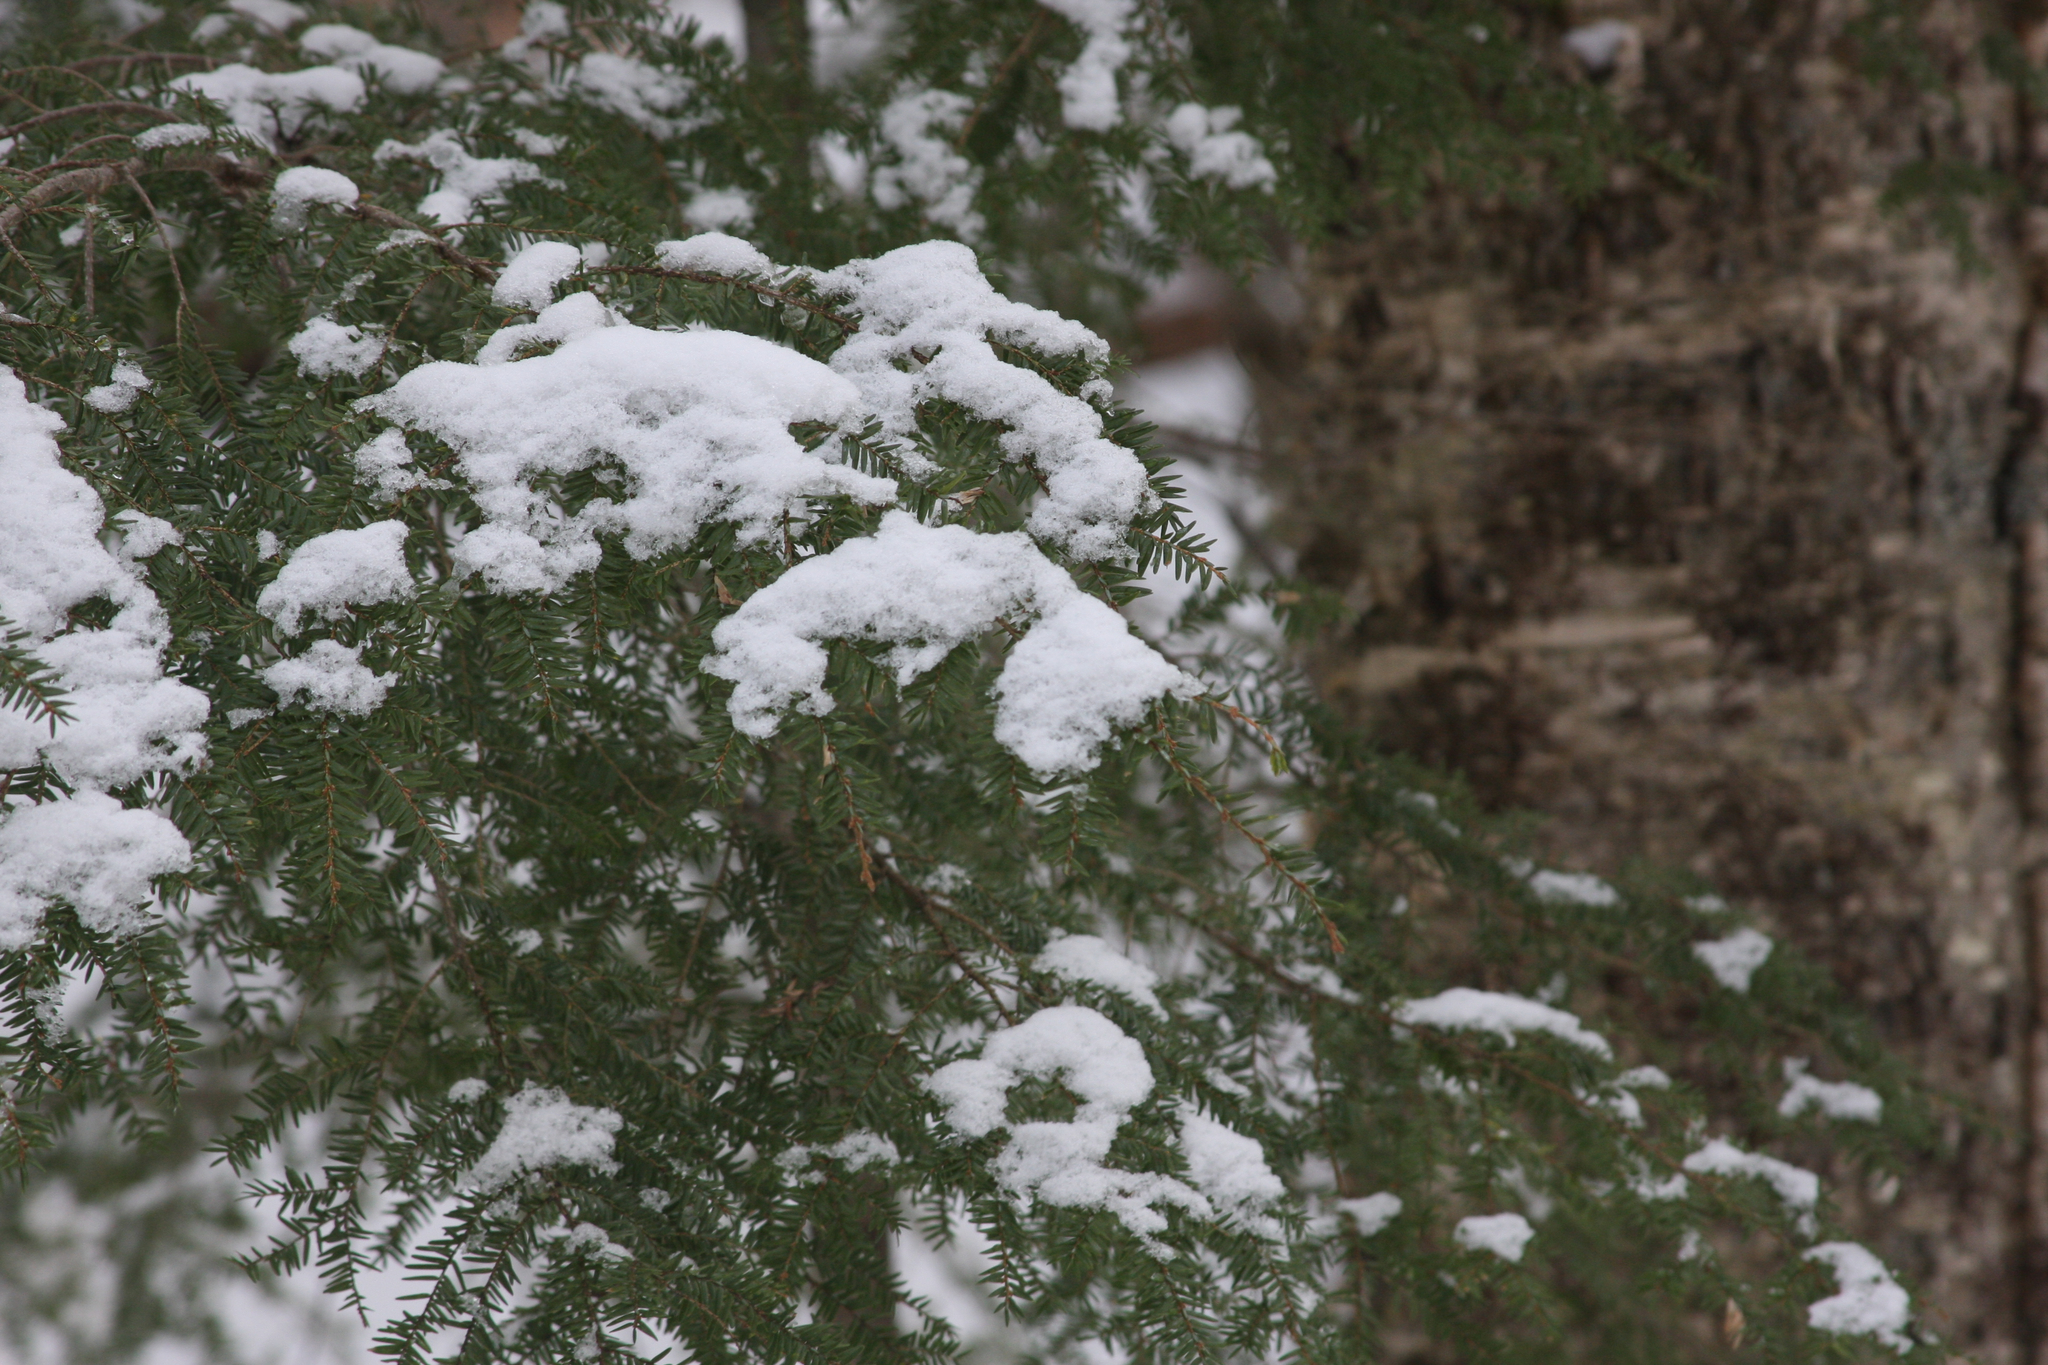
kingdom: Plantae
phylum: Tracheophyta
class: Pinopsida
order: Pinales
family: Pinaceae
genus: Tsuga
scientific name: Tsuga canadensis
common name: Eastern hemlock
